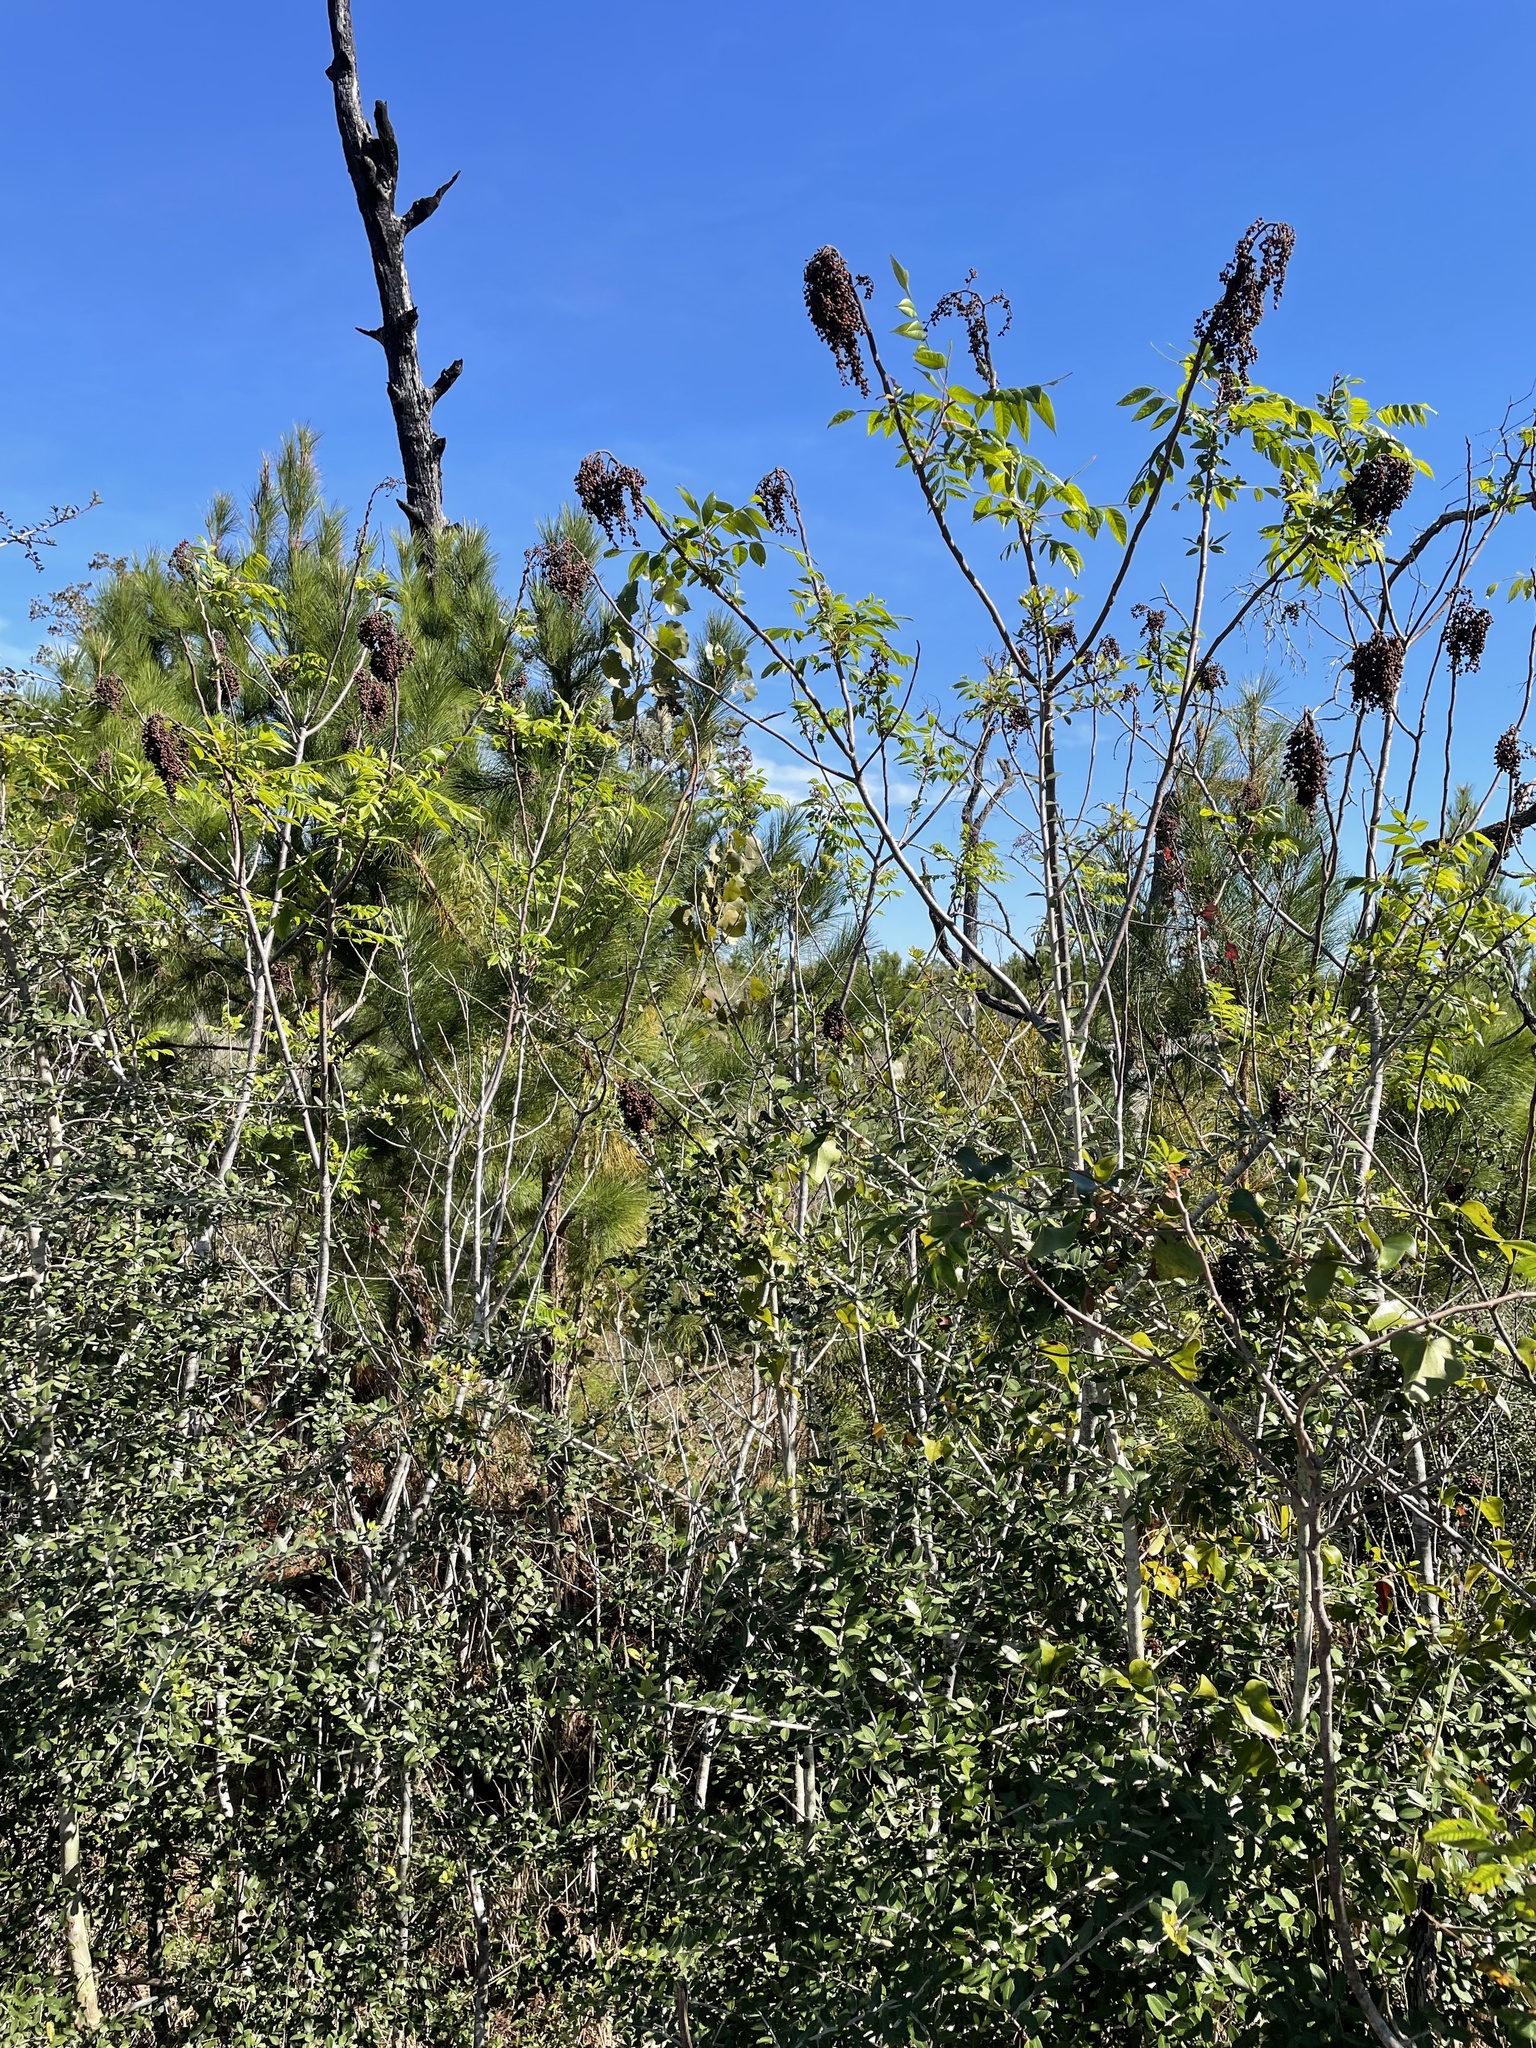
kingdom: Plantae
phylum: Tracheophyta
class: Magnoliopsida
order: Sapindales
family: Anacardiaceae
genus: Rhus
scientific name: Rhus copallina
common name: Shining sumac
